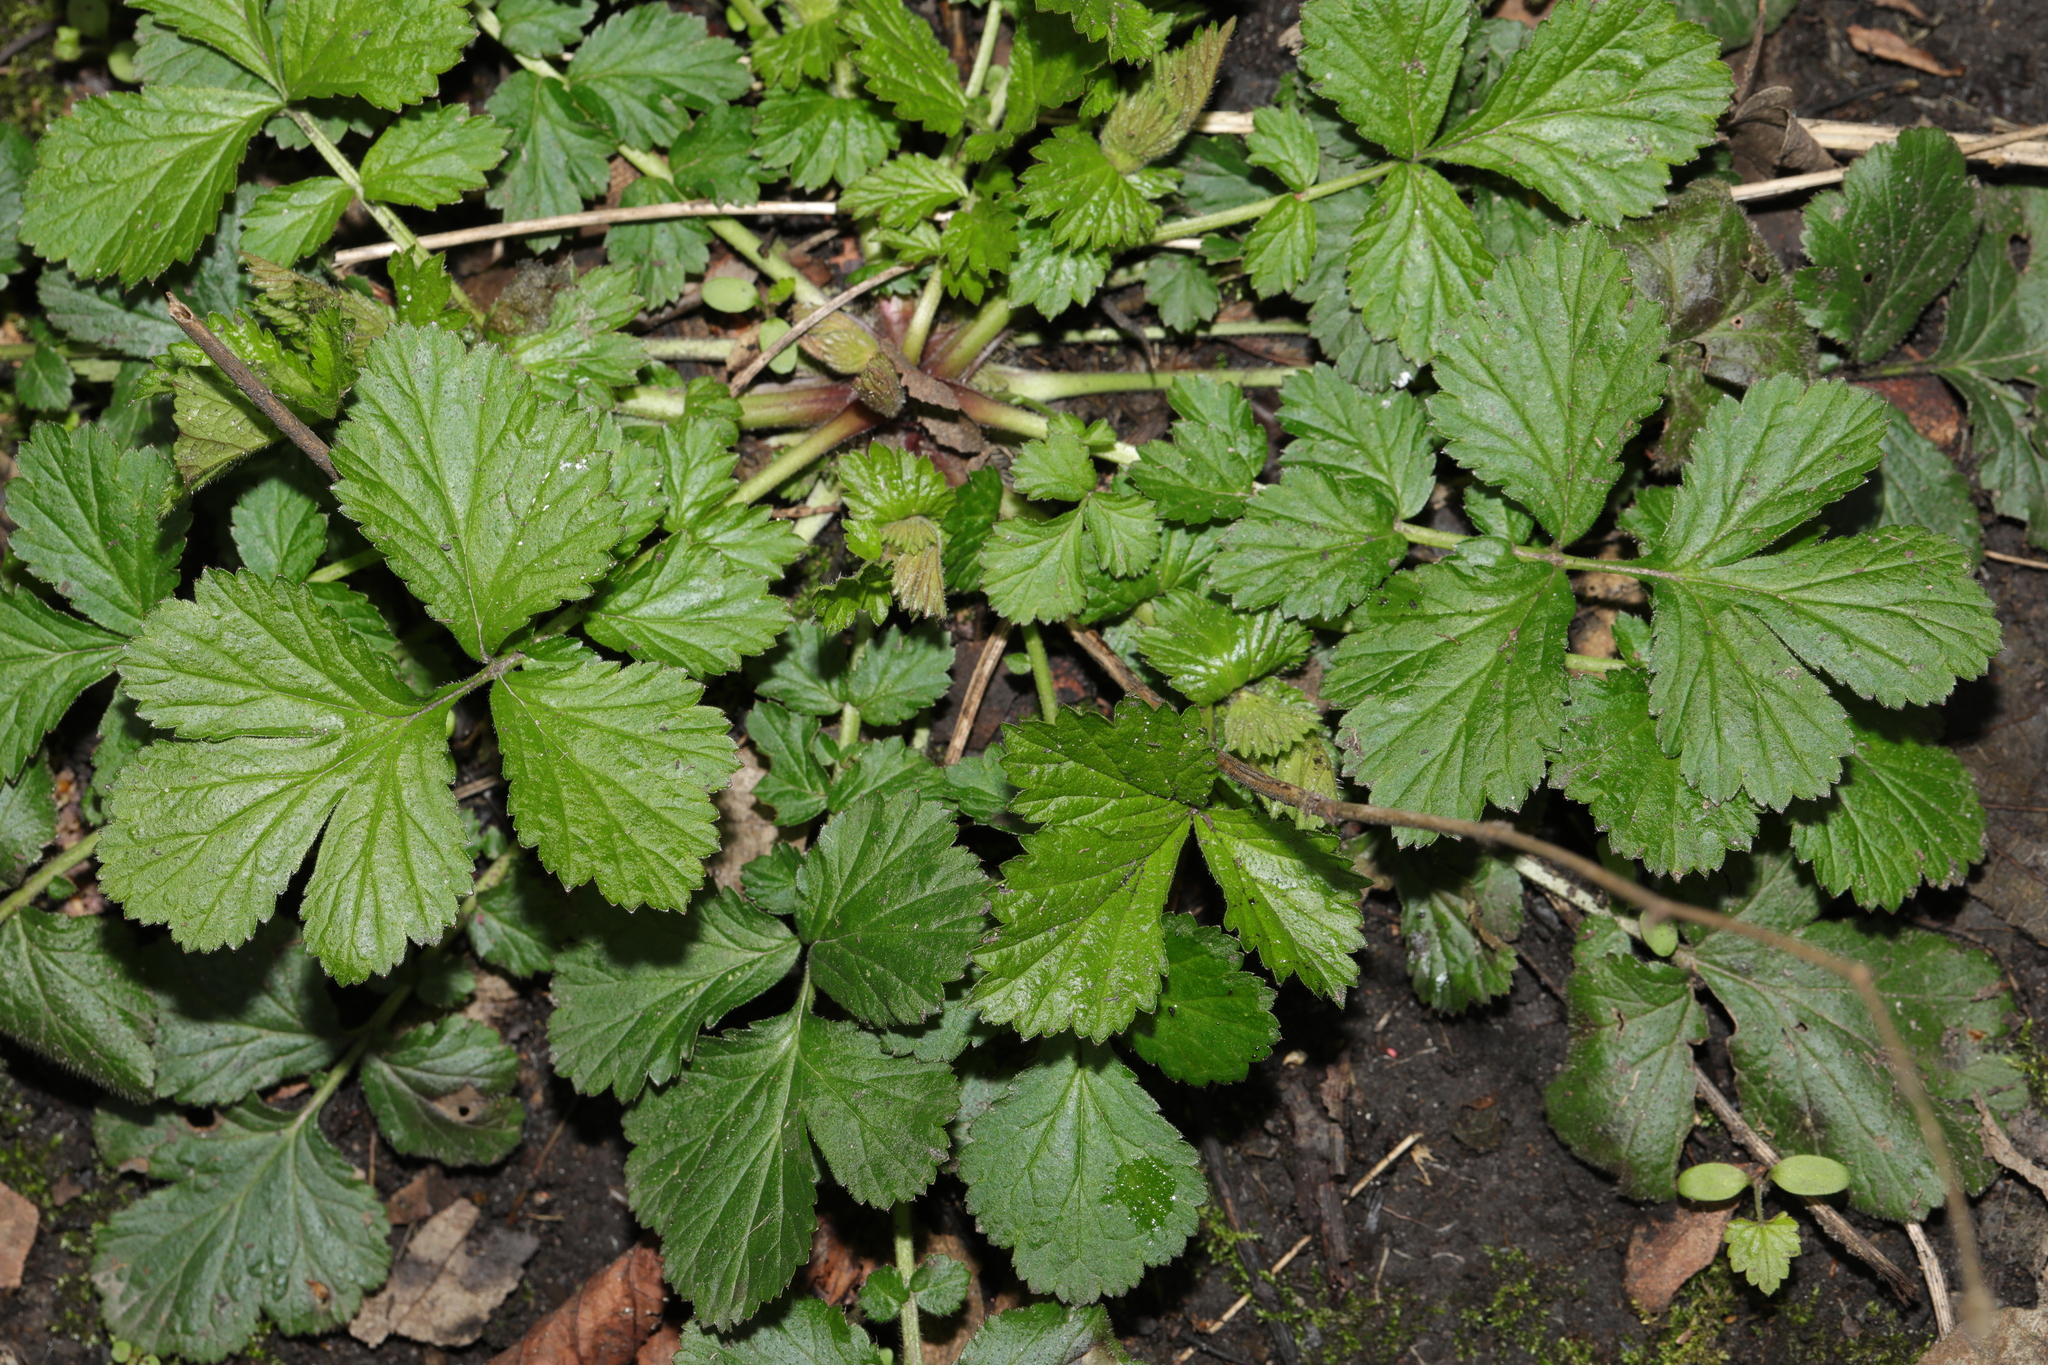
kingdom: Plantae
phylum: Tracheophyta
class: Magnoliopsida
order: Rosales
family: Rosaceae
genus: Geum
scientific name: Geum urbanum
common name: Wood avens
